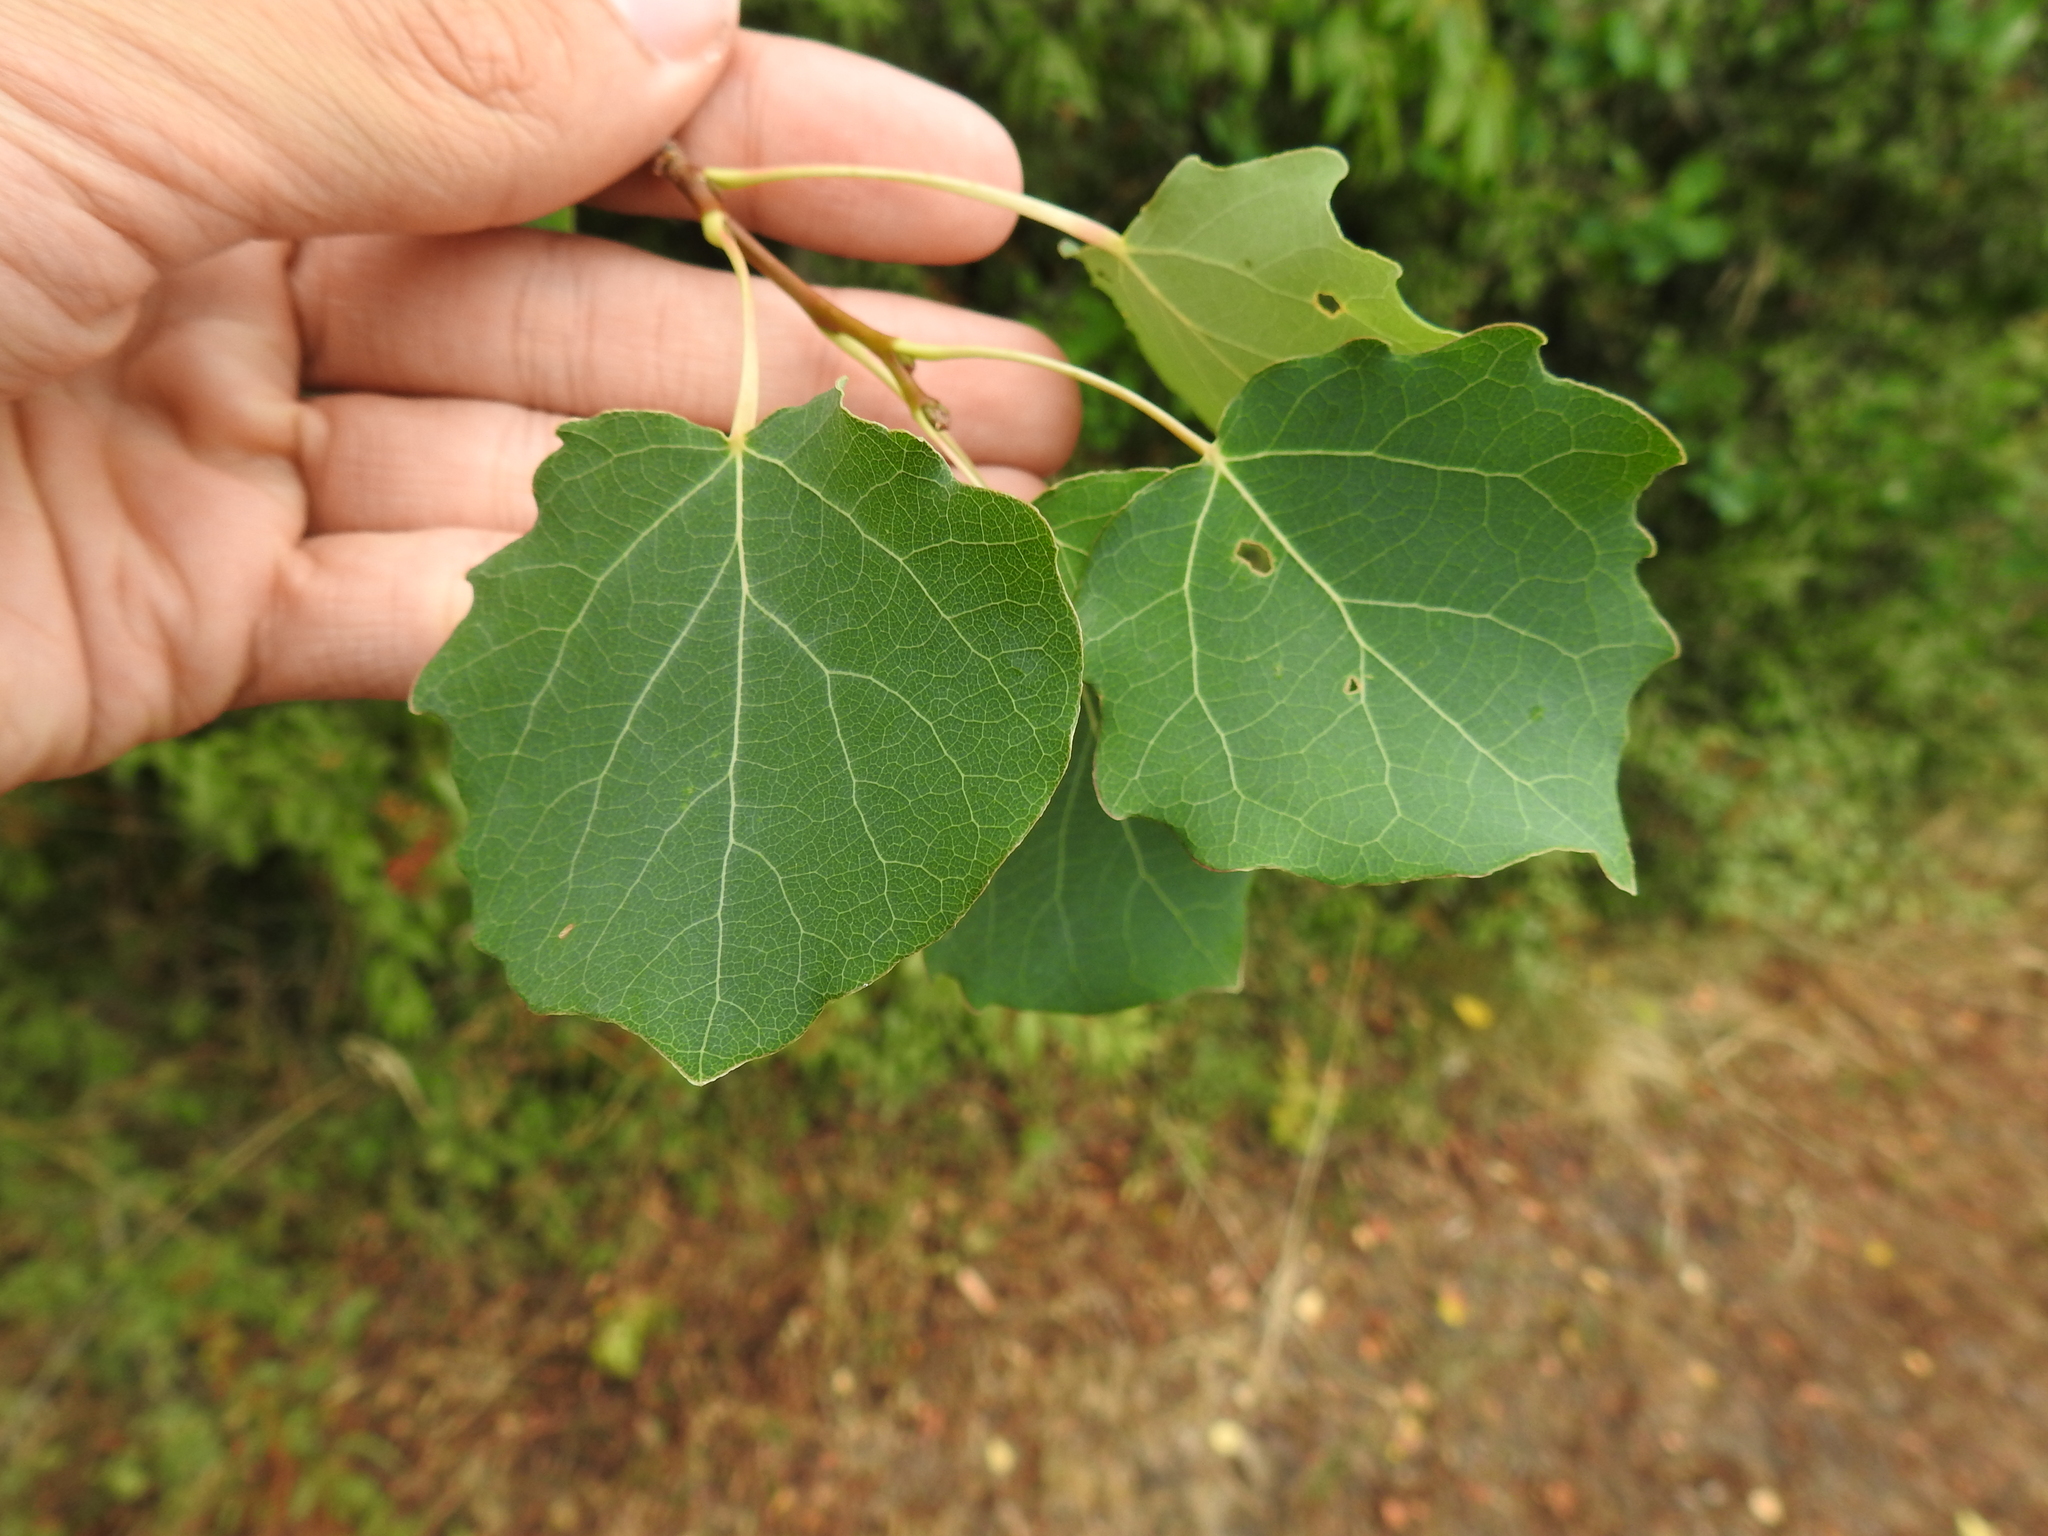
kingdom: Plantae
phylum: Tracheophyta
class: Magnoliopsida
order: Malpighiales
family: Salicaceae
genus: Populus
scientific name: Populus tremula
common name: European aspen
